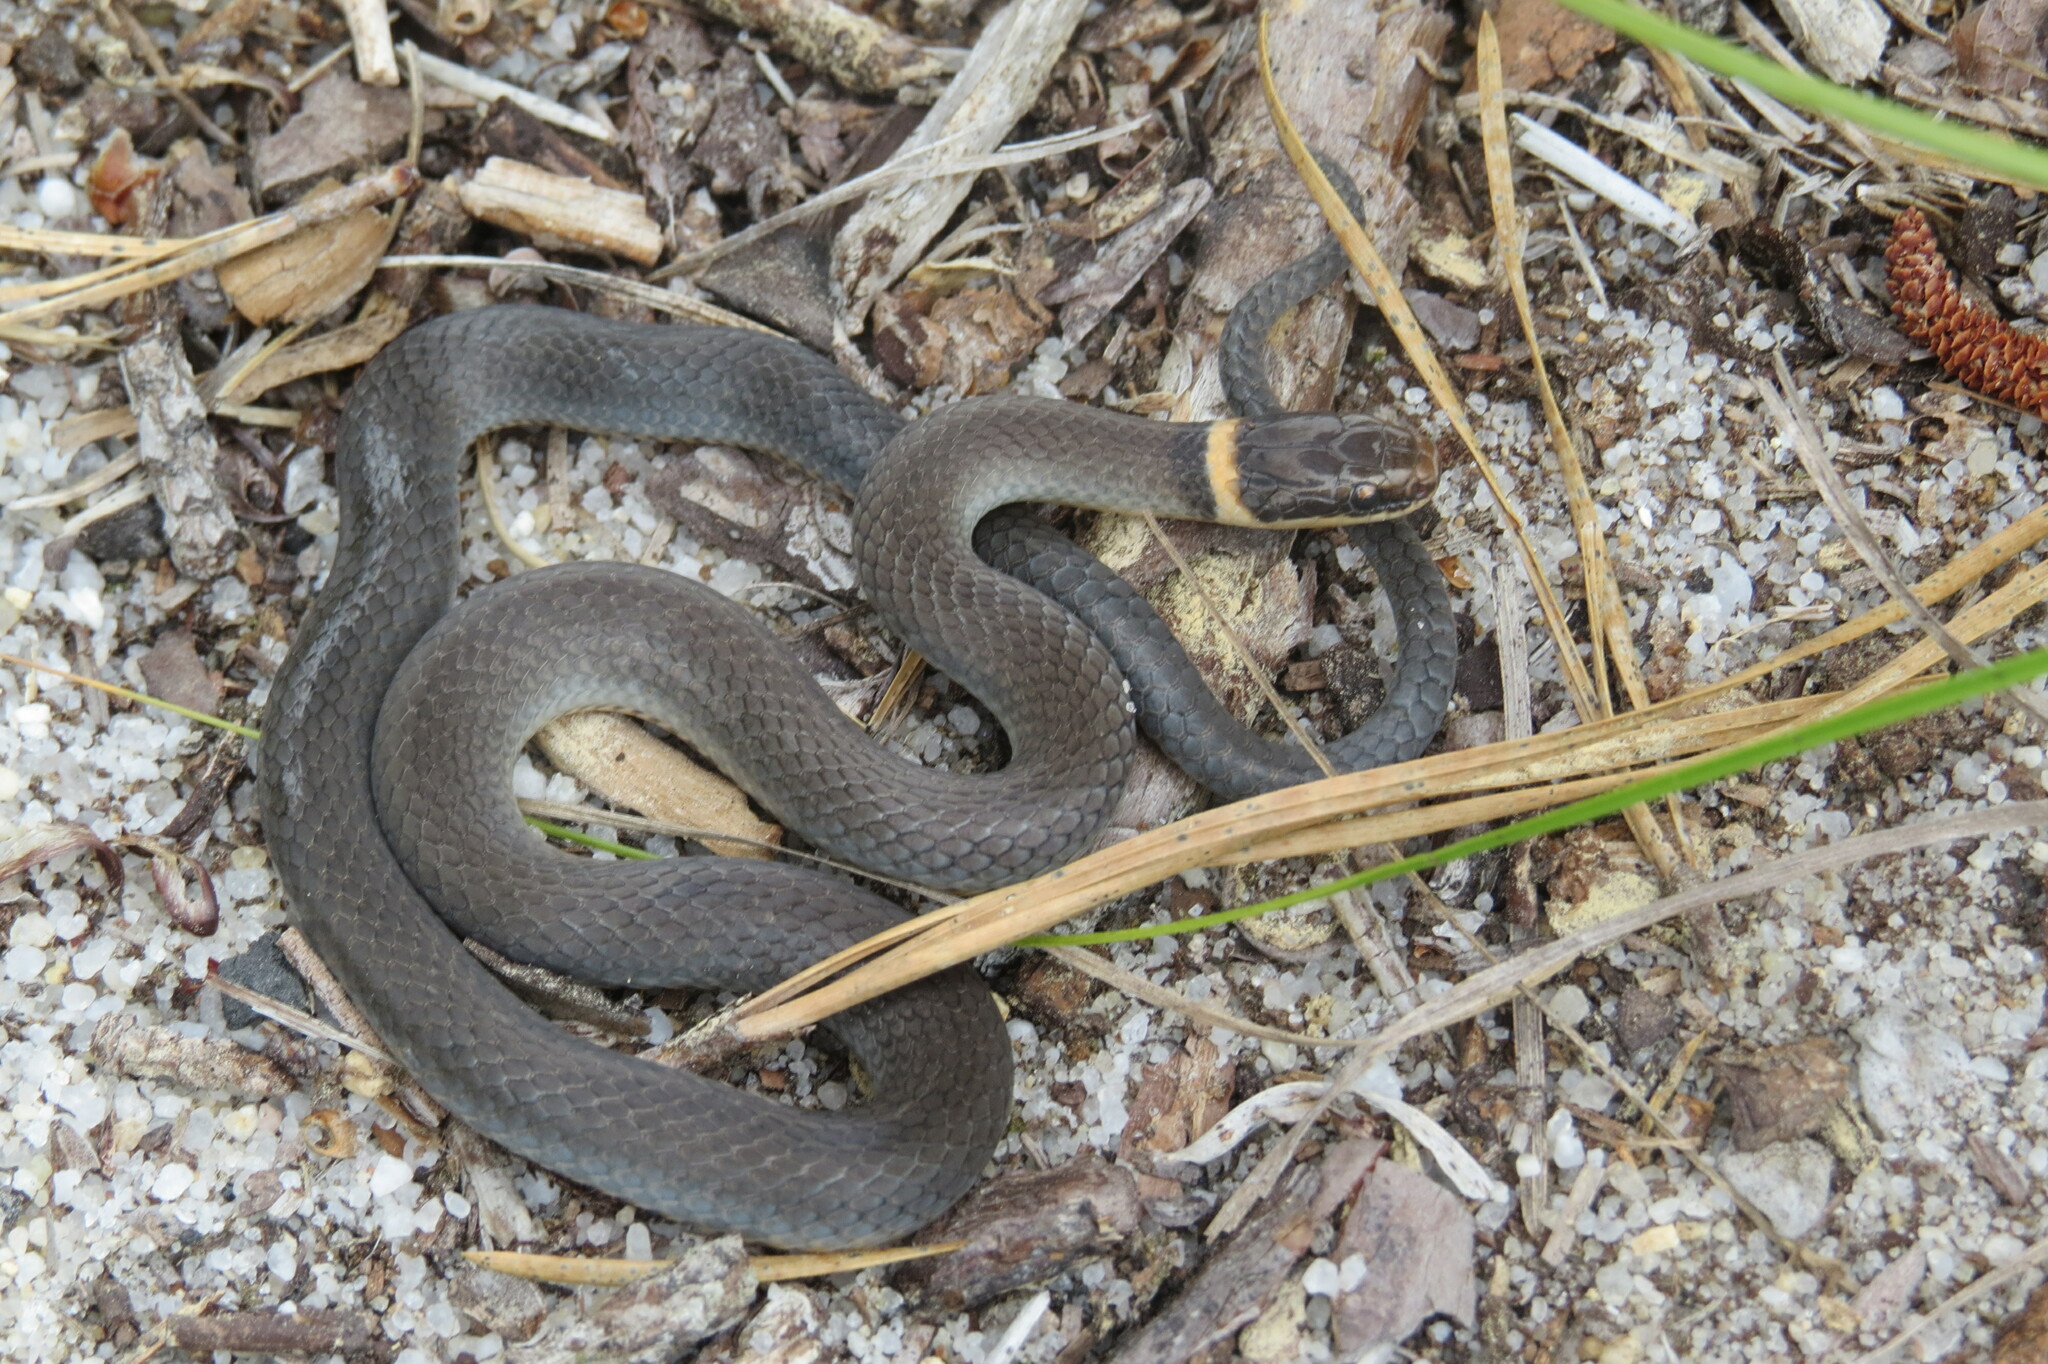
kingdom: Animalia
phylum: Chordata
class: Squamata
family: Colubridae
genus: Diadophis
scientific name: Diadophis punctatus
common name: Ringneck snake
